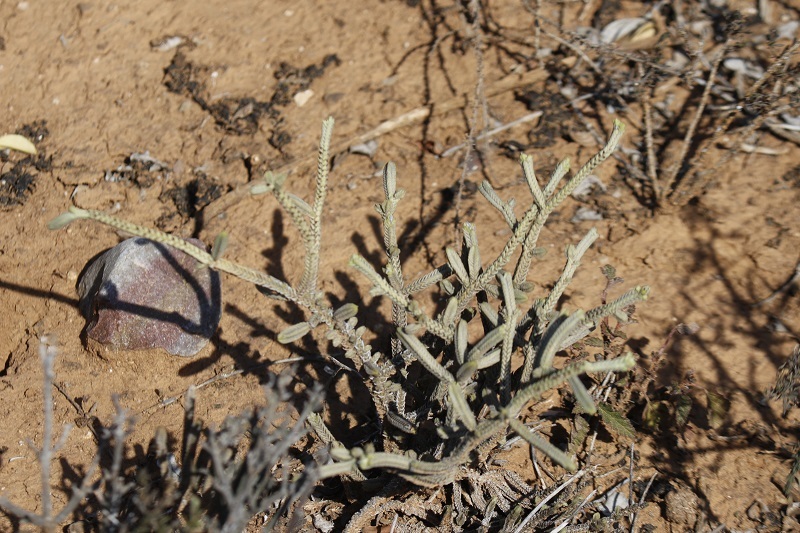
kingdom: Plantae
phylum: Tracheophyta
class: Magnoliopsida
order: Saxifragales
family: Crassulaceae
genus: Crassula
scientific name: Crassula muscosa
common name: Toy-cypress
